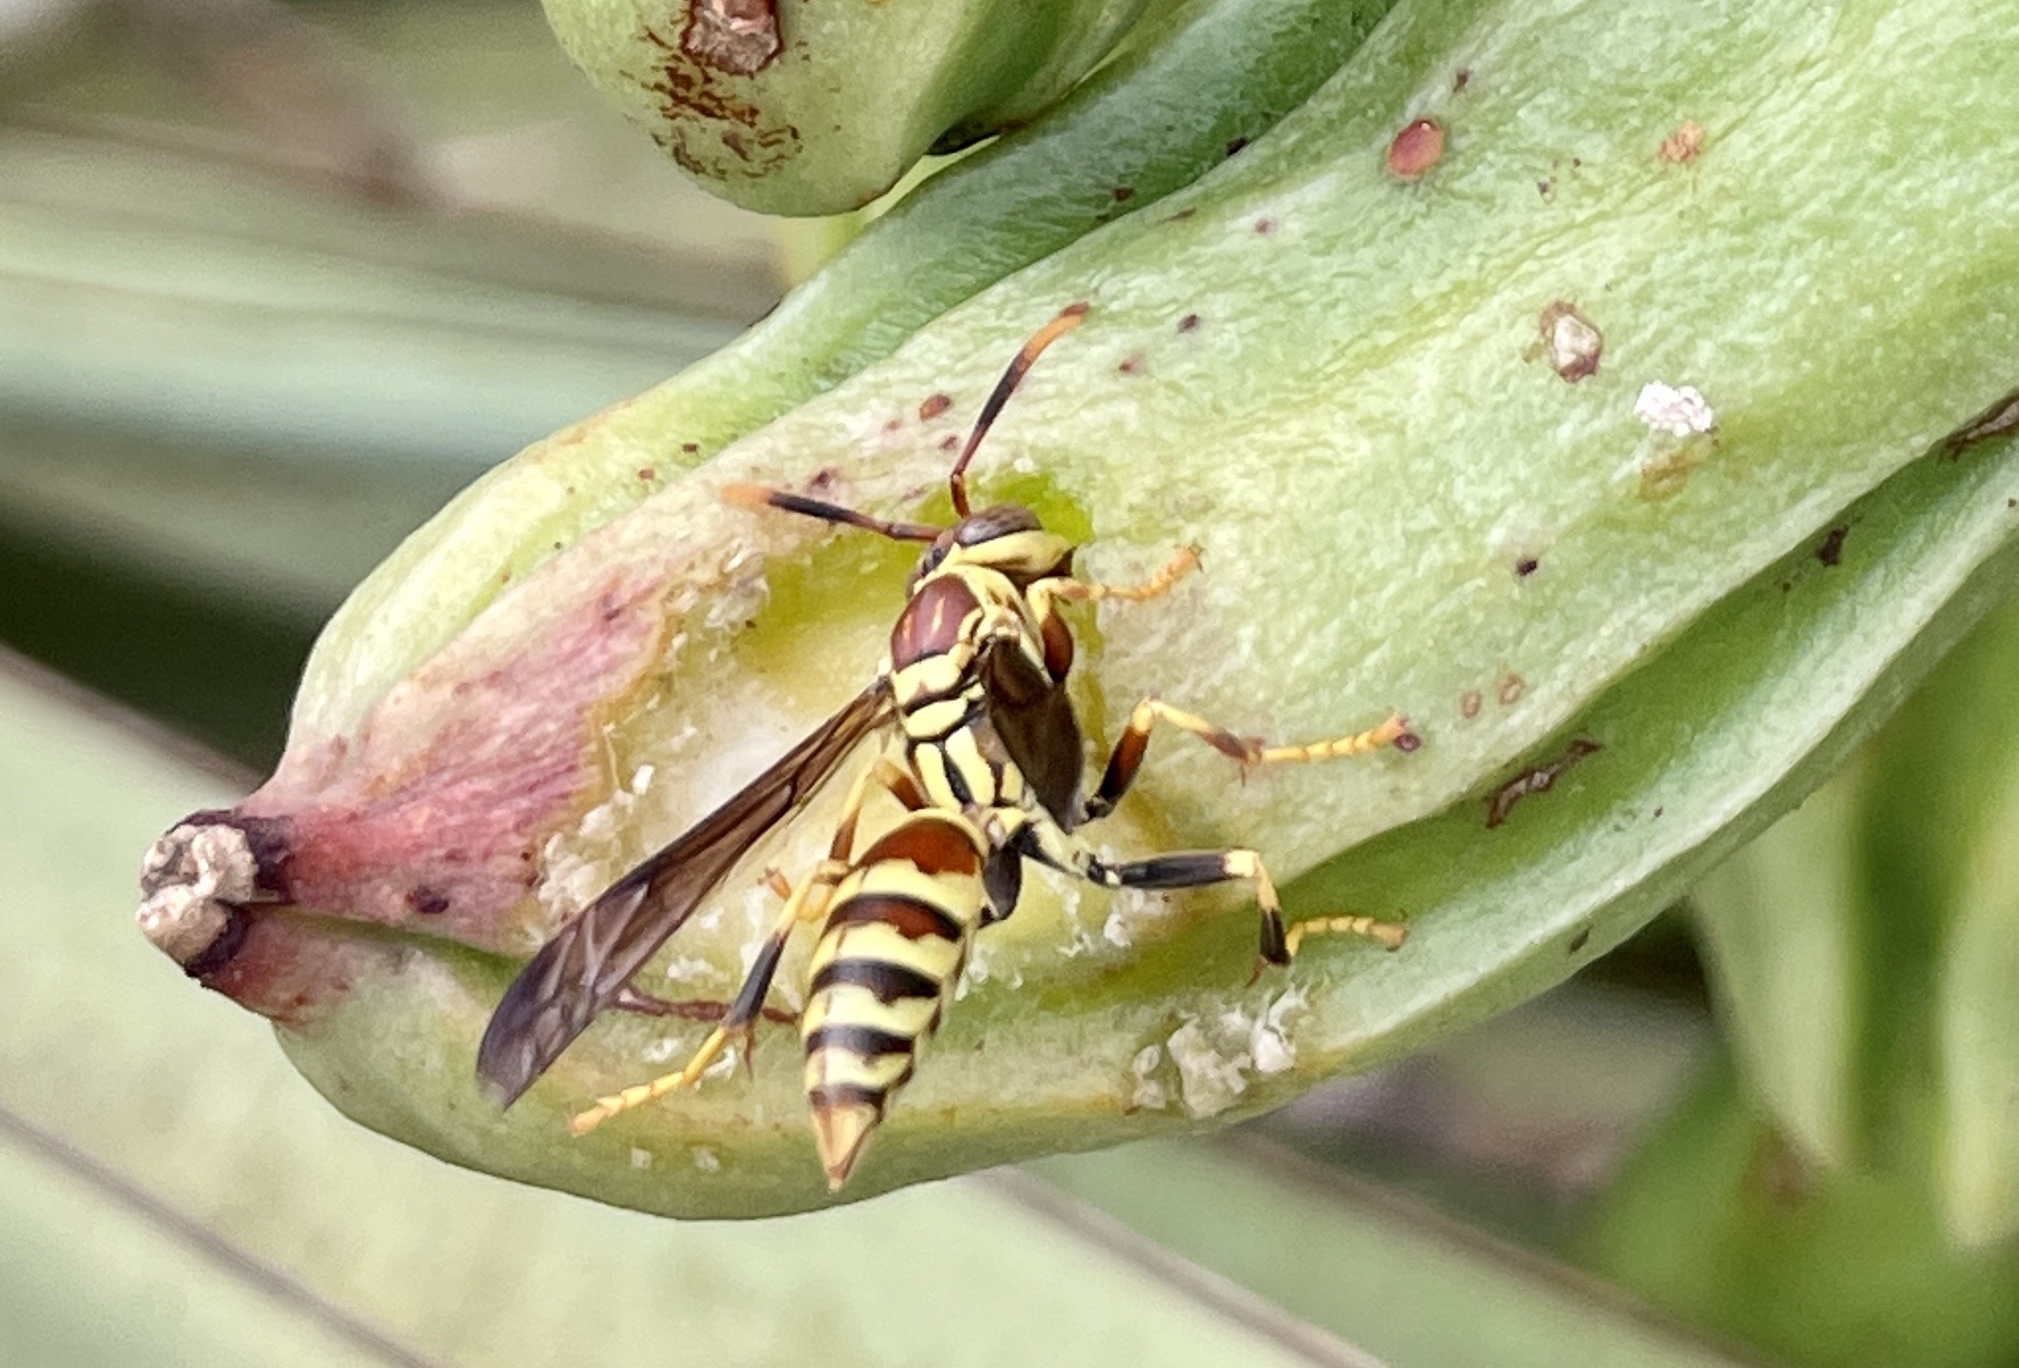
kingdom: Animalia
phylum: Arthropoda
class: Insecta
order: Hymenoptera
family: Eumenidae
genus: Polistes
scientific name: Polistes exclamans
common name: Paper wasp
